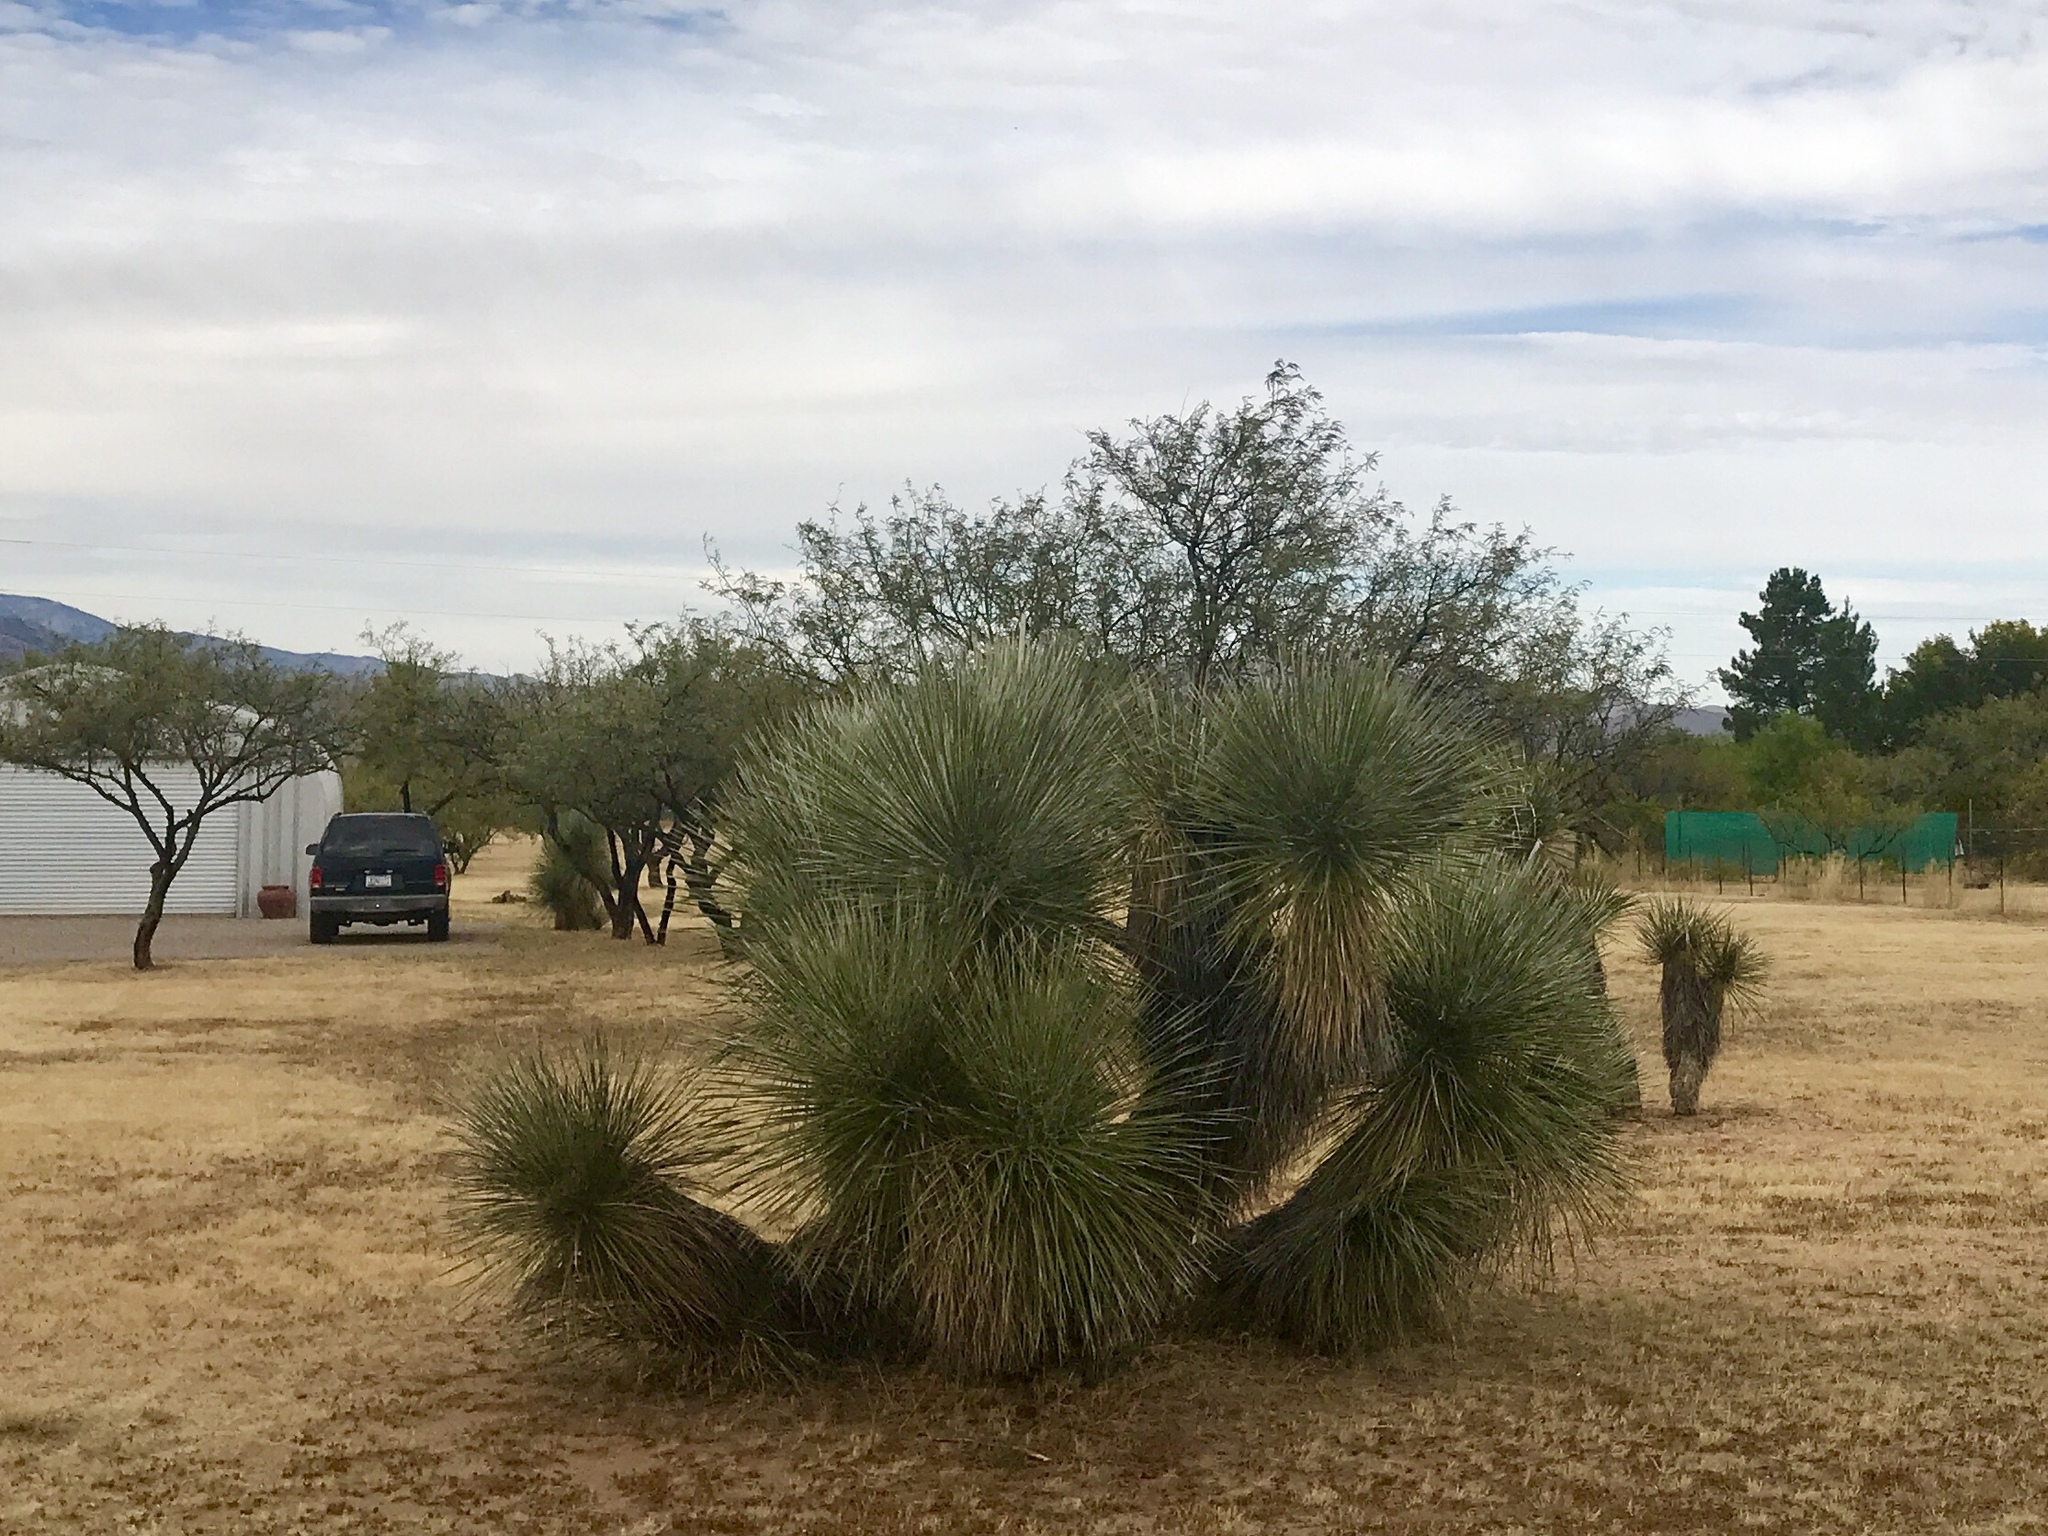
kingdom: Plantae
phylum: Tracheophyta
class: Liliopsida
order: Asparagales
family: Asparagaceae
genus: Yucca
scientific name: Yucca elata
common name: Palmella
